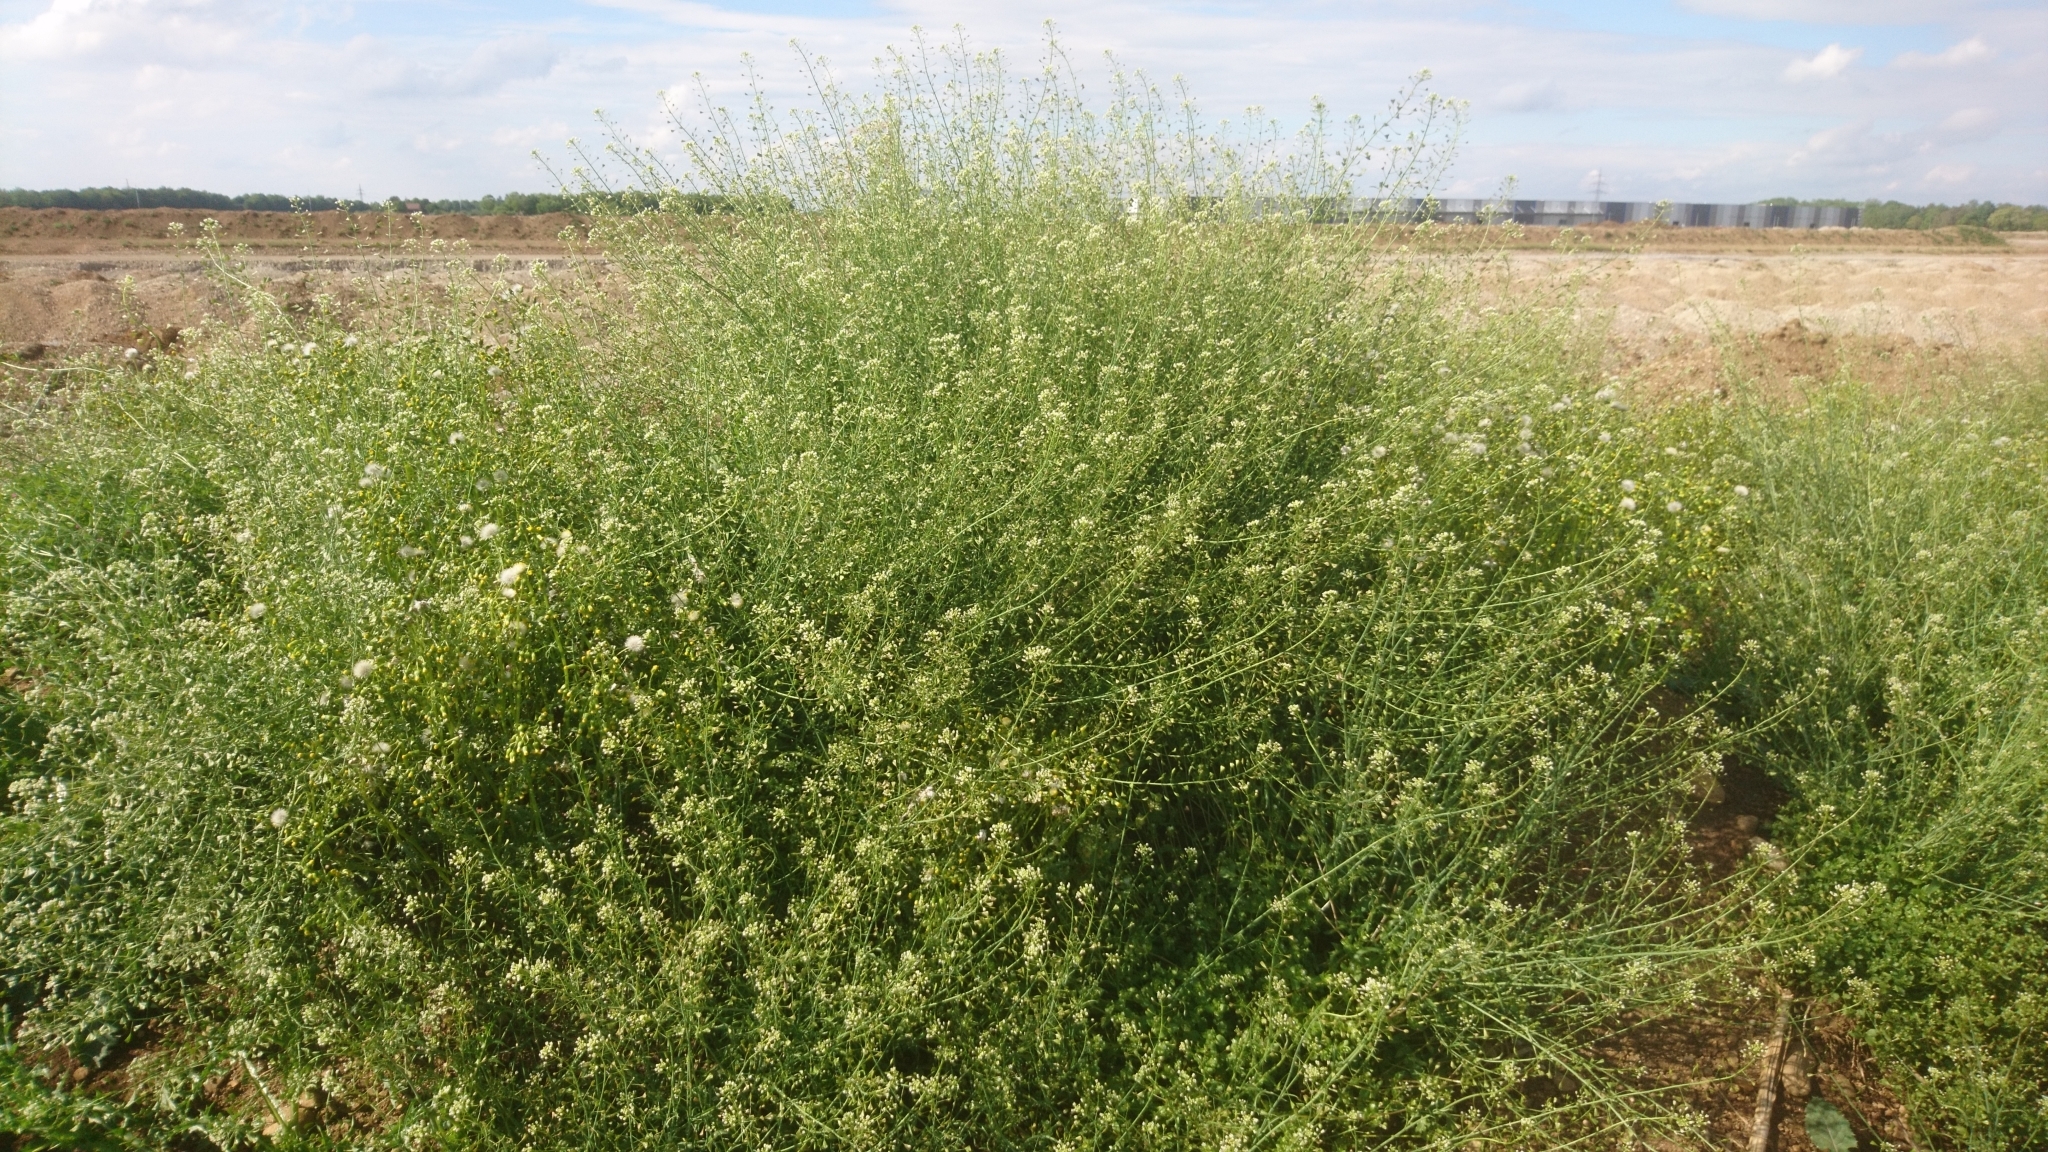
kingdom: Plantae
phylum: Tracheophyta
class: Magnoliopsida
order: Brassicales
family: Brassicaceae
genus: Capsella
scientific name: Capsella bursa-pastoris
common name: Shepherd's purse
